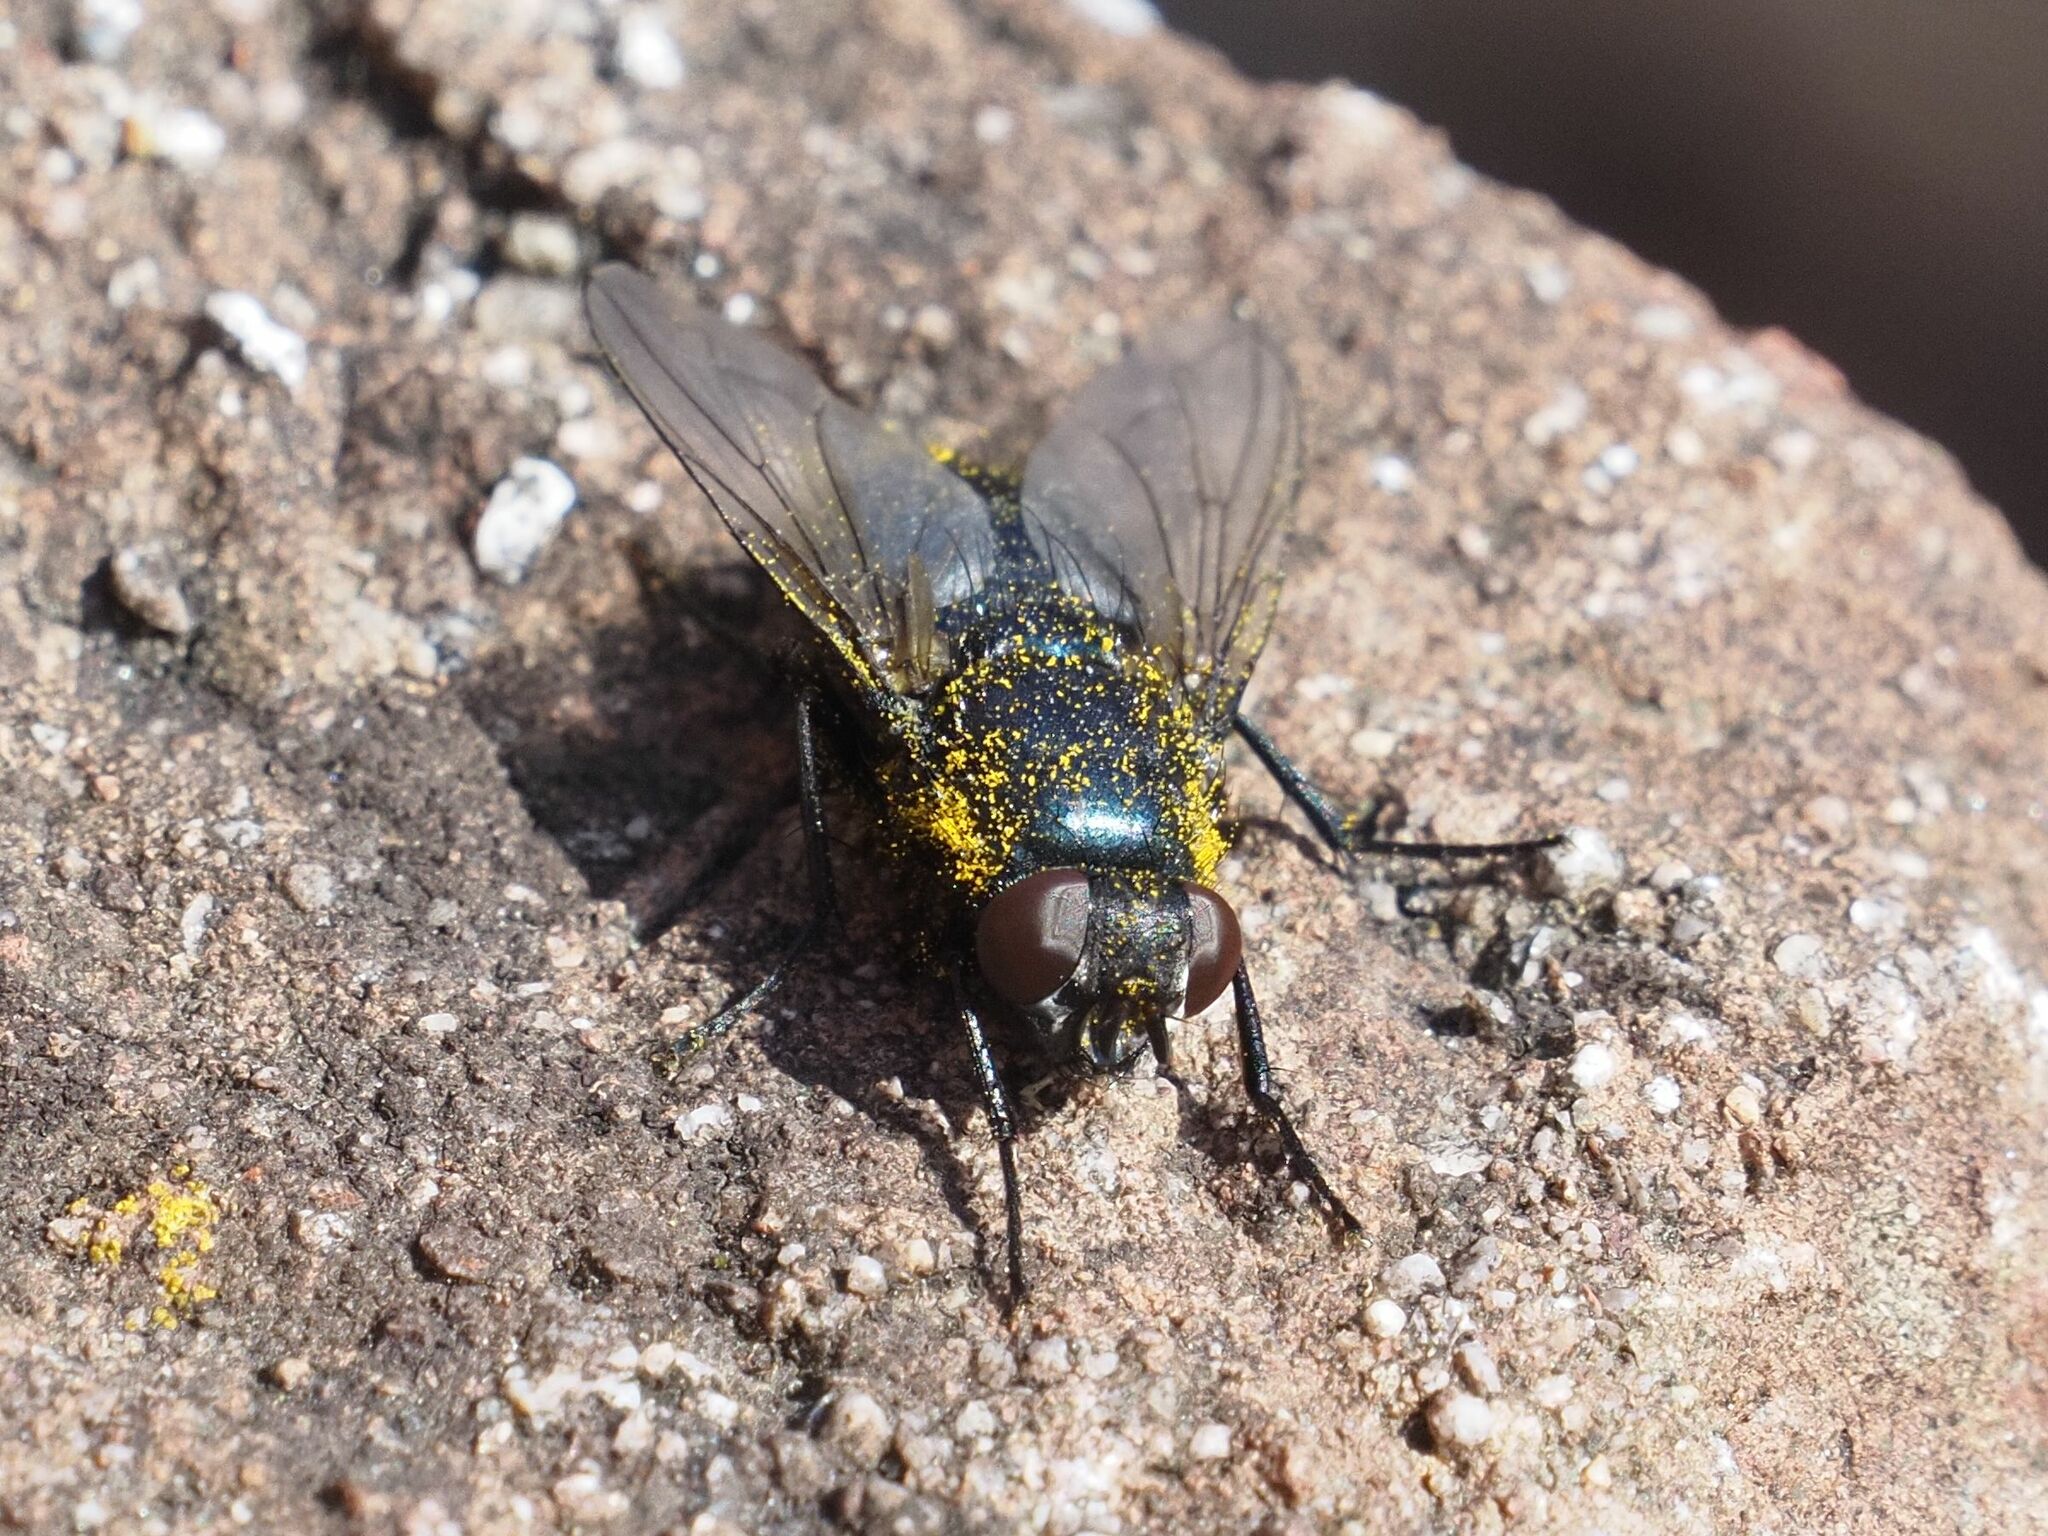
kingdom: Animalia
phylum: Arthropoda
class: Insecta
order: Diptera
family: Calliphoridae
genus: Protophormia
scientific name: Protophormia terraenovae
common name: Blackbottle
